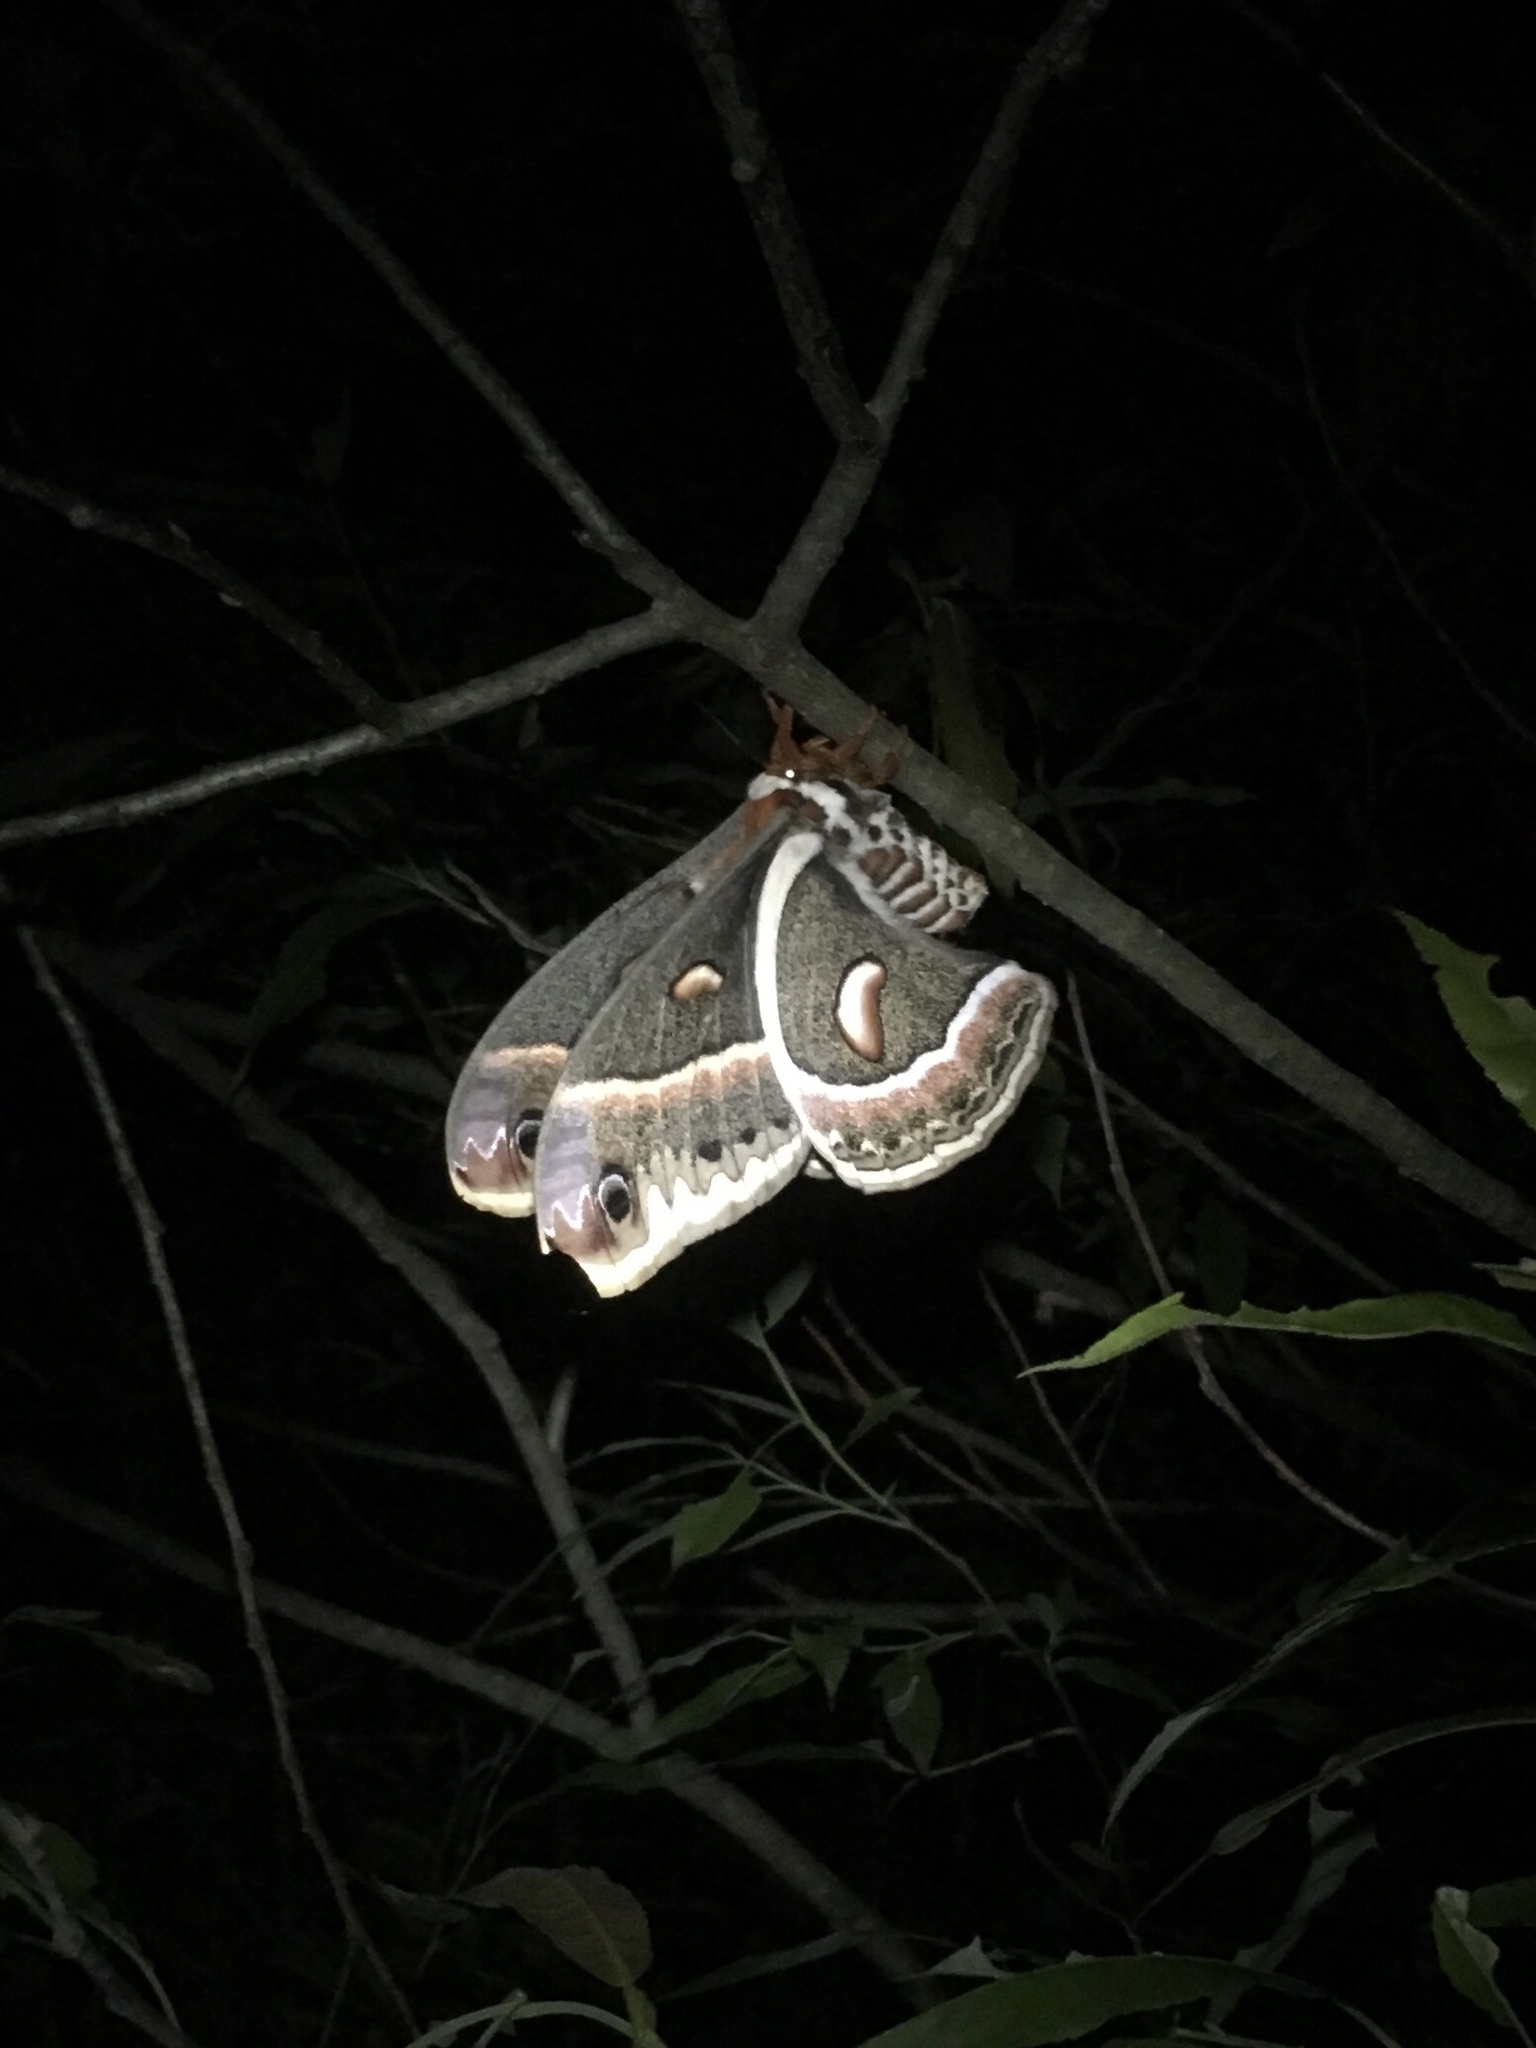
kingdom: Animalia
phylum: Arthropoda
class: Insecta
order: Lepidoptera
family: Saturniidae
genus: Hyalophora
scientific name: Hyalophora cecropia
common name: Cecropia silkmoth
